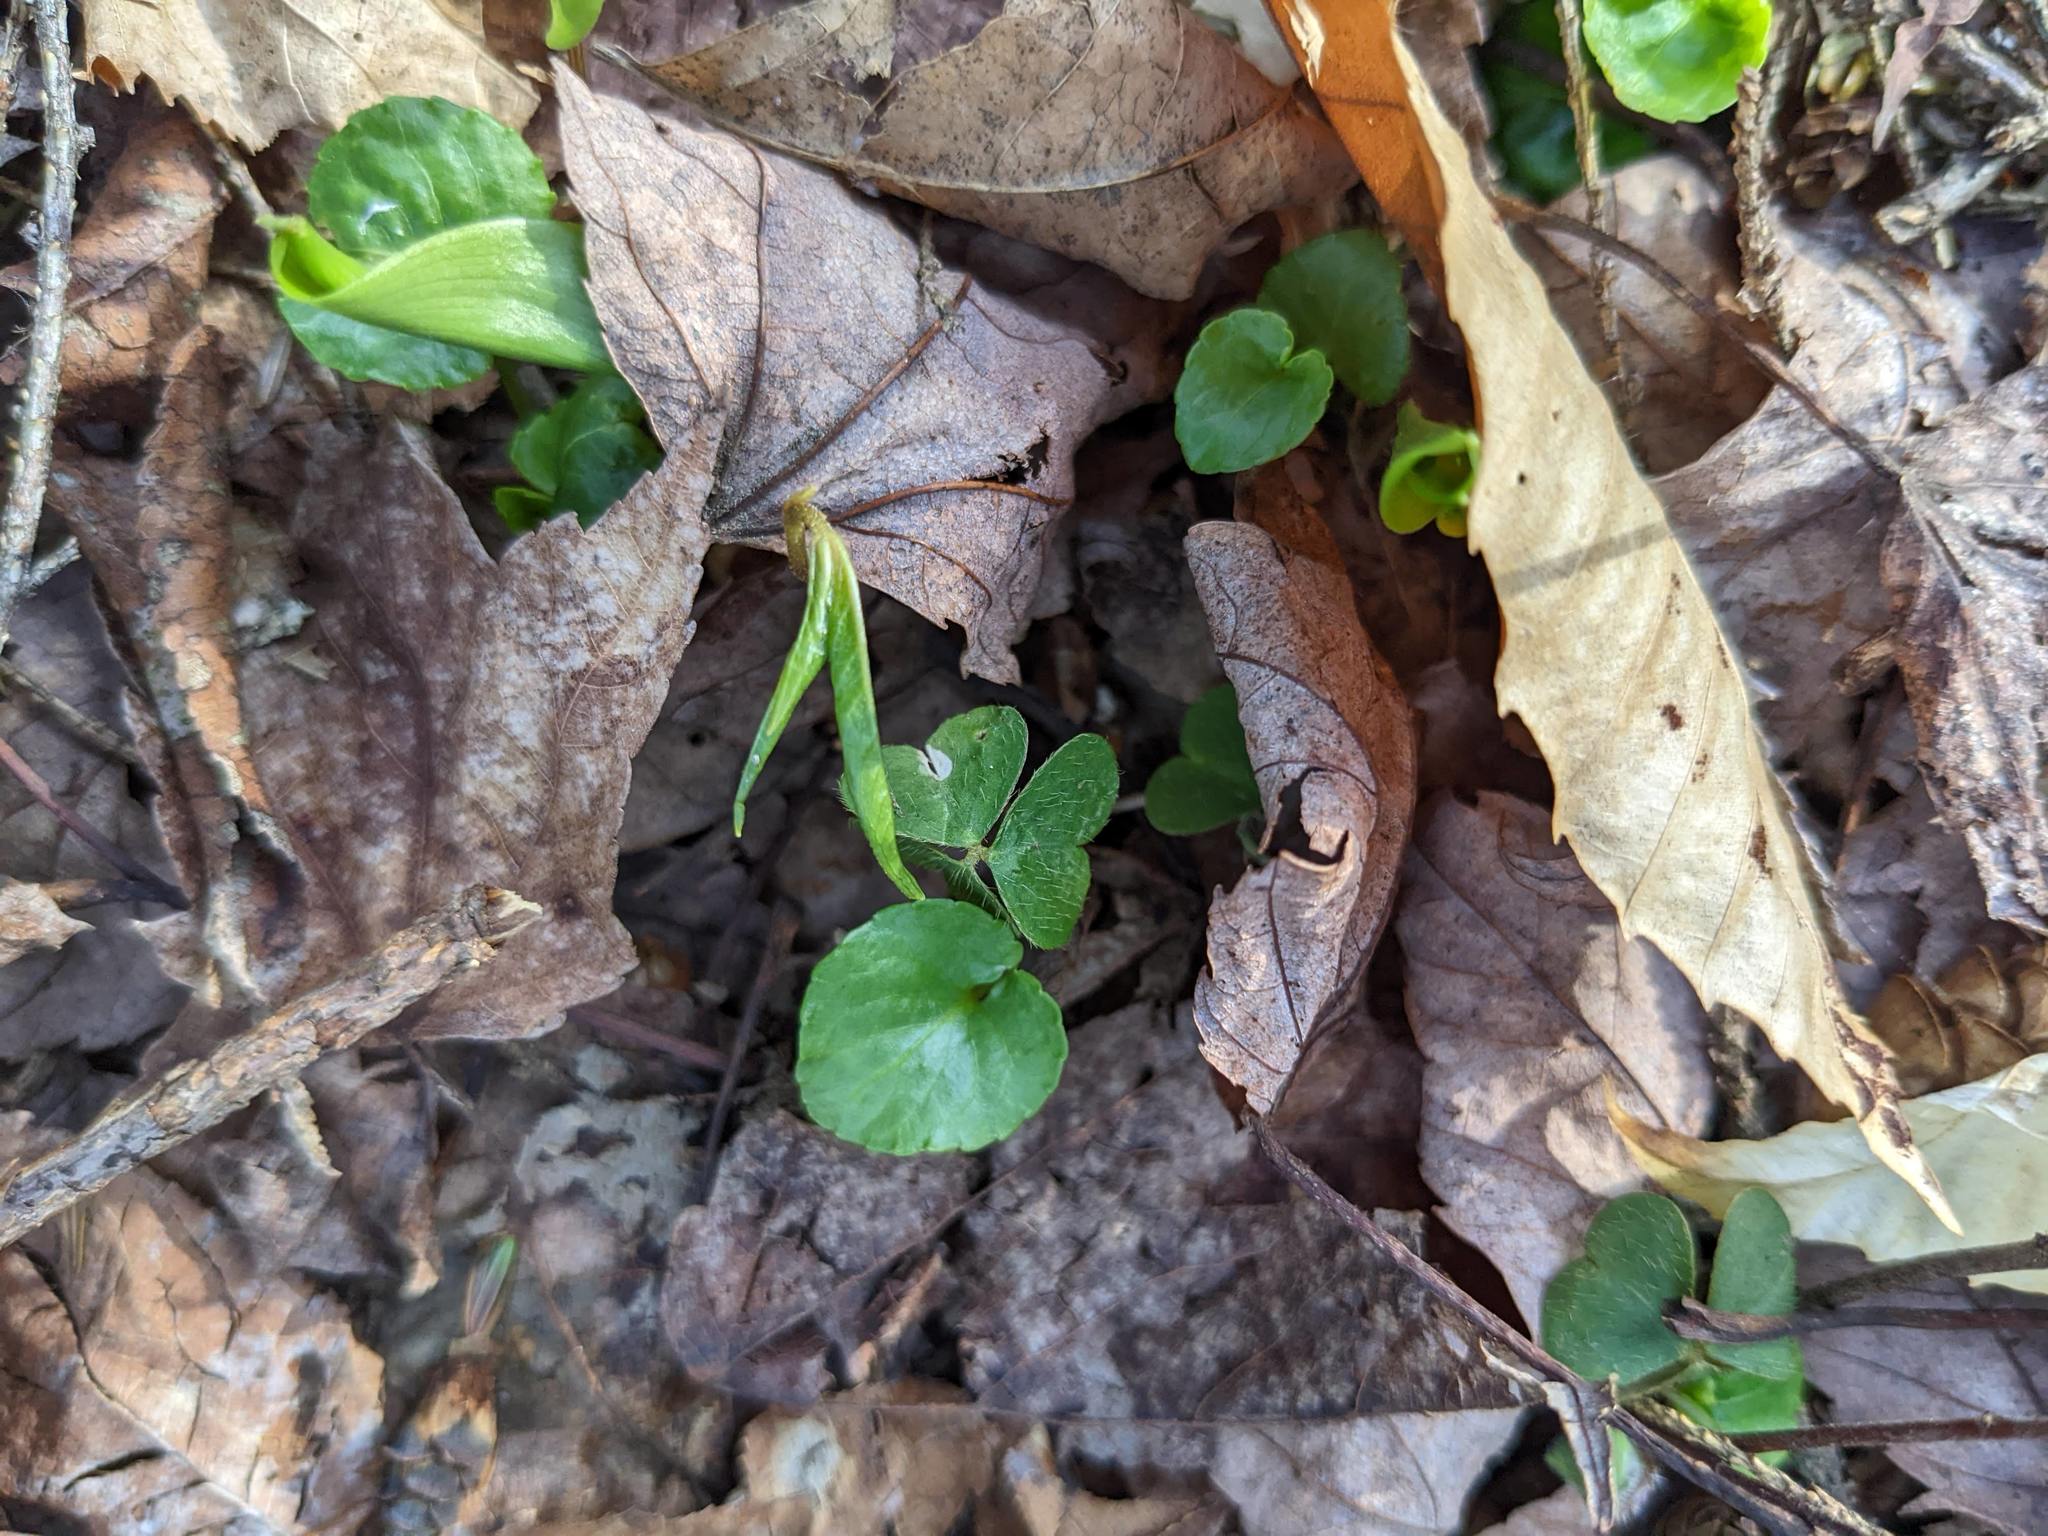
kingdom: Plantae
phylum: Tracheophyta
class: Magnoliopsida
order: Oxalidales
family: Oxalidaceae
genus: Oxalis
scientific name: Oxalis montana
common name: American wood-sorrel
